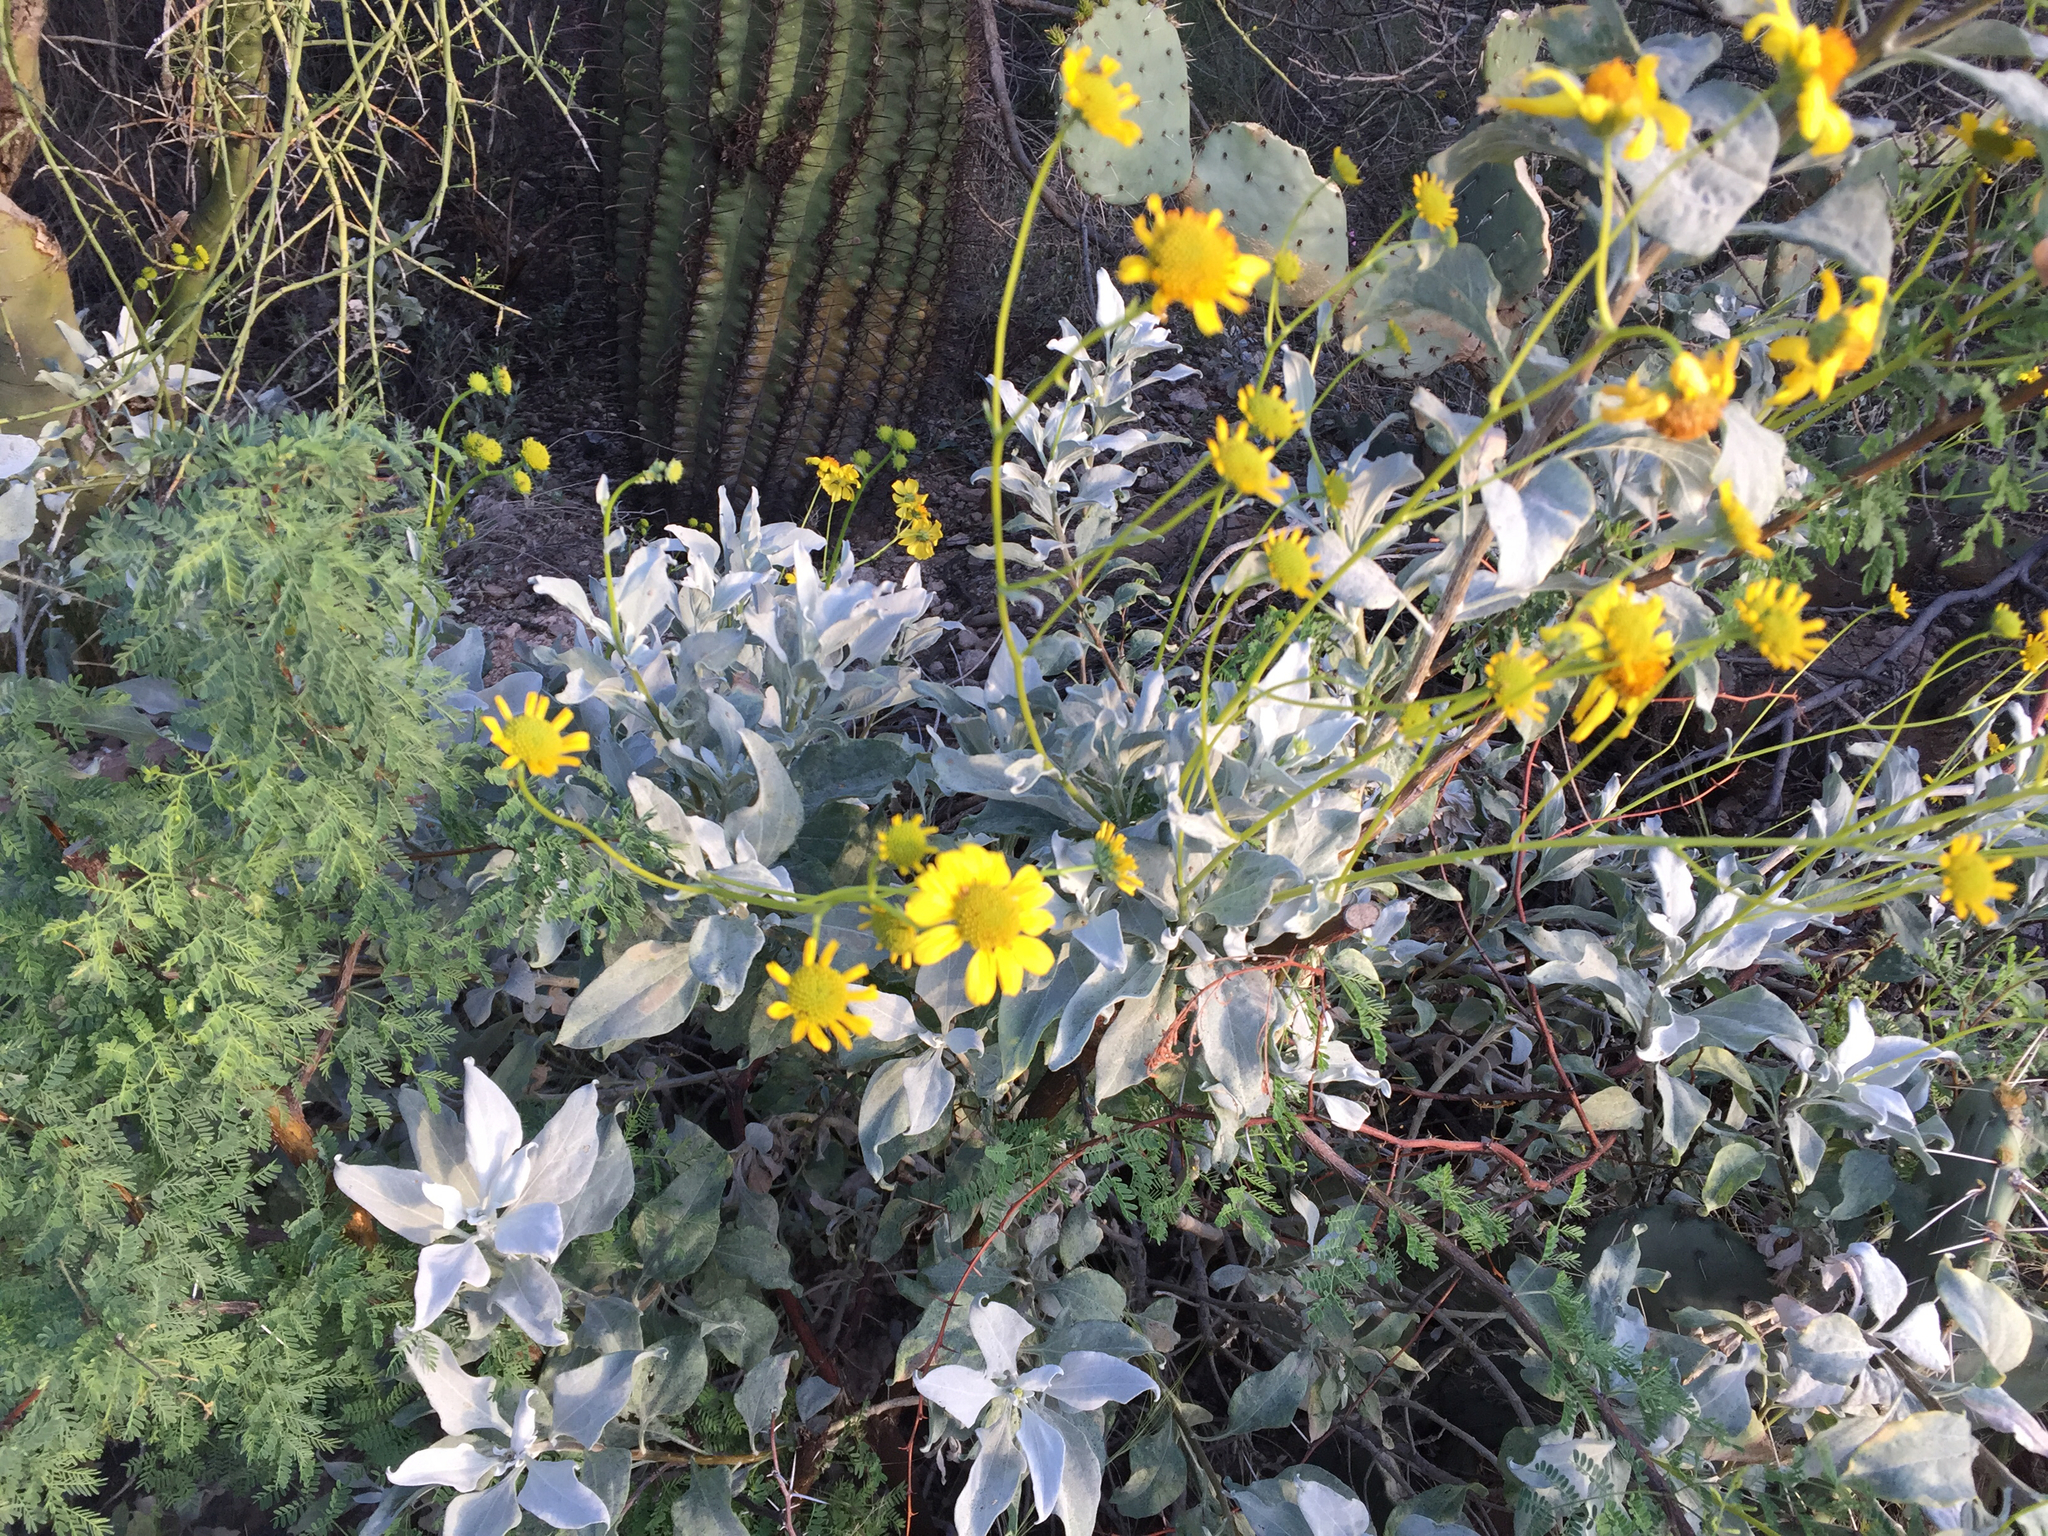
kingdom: Plantae
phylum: Tracheophyta
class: Magnoliopsida
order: Asterales
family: Asteraceae
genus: Encelia
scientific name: Encelia farinosa
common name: Brittlebush
